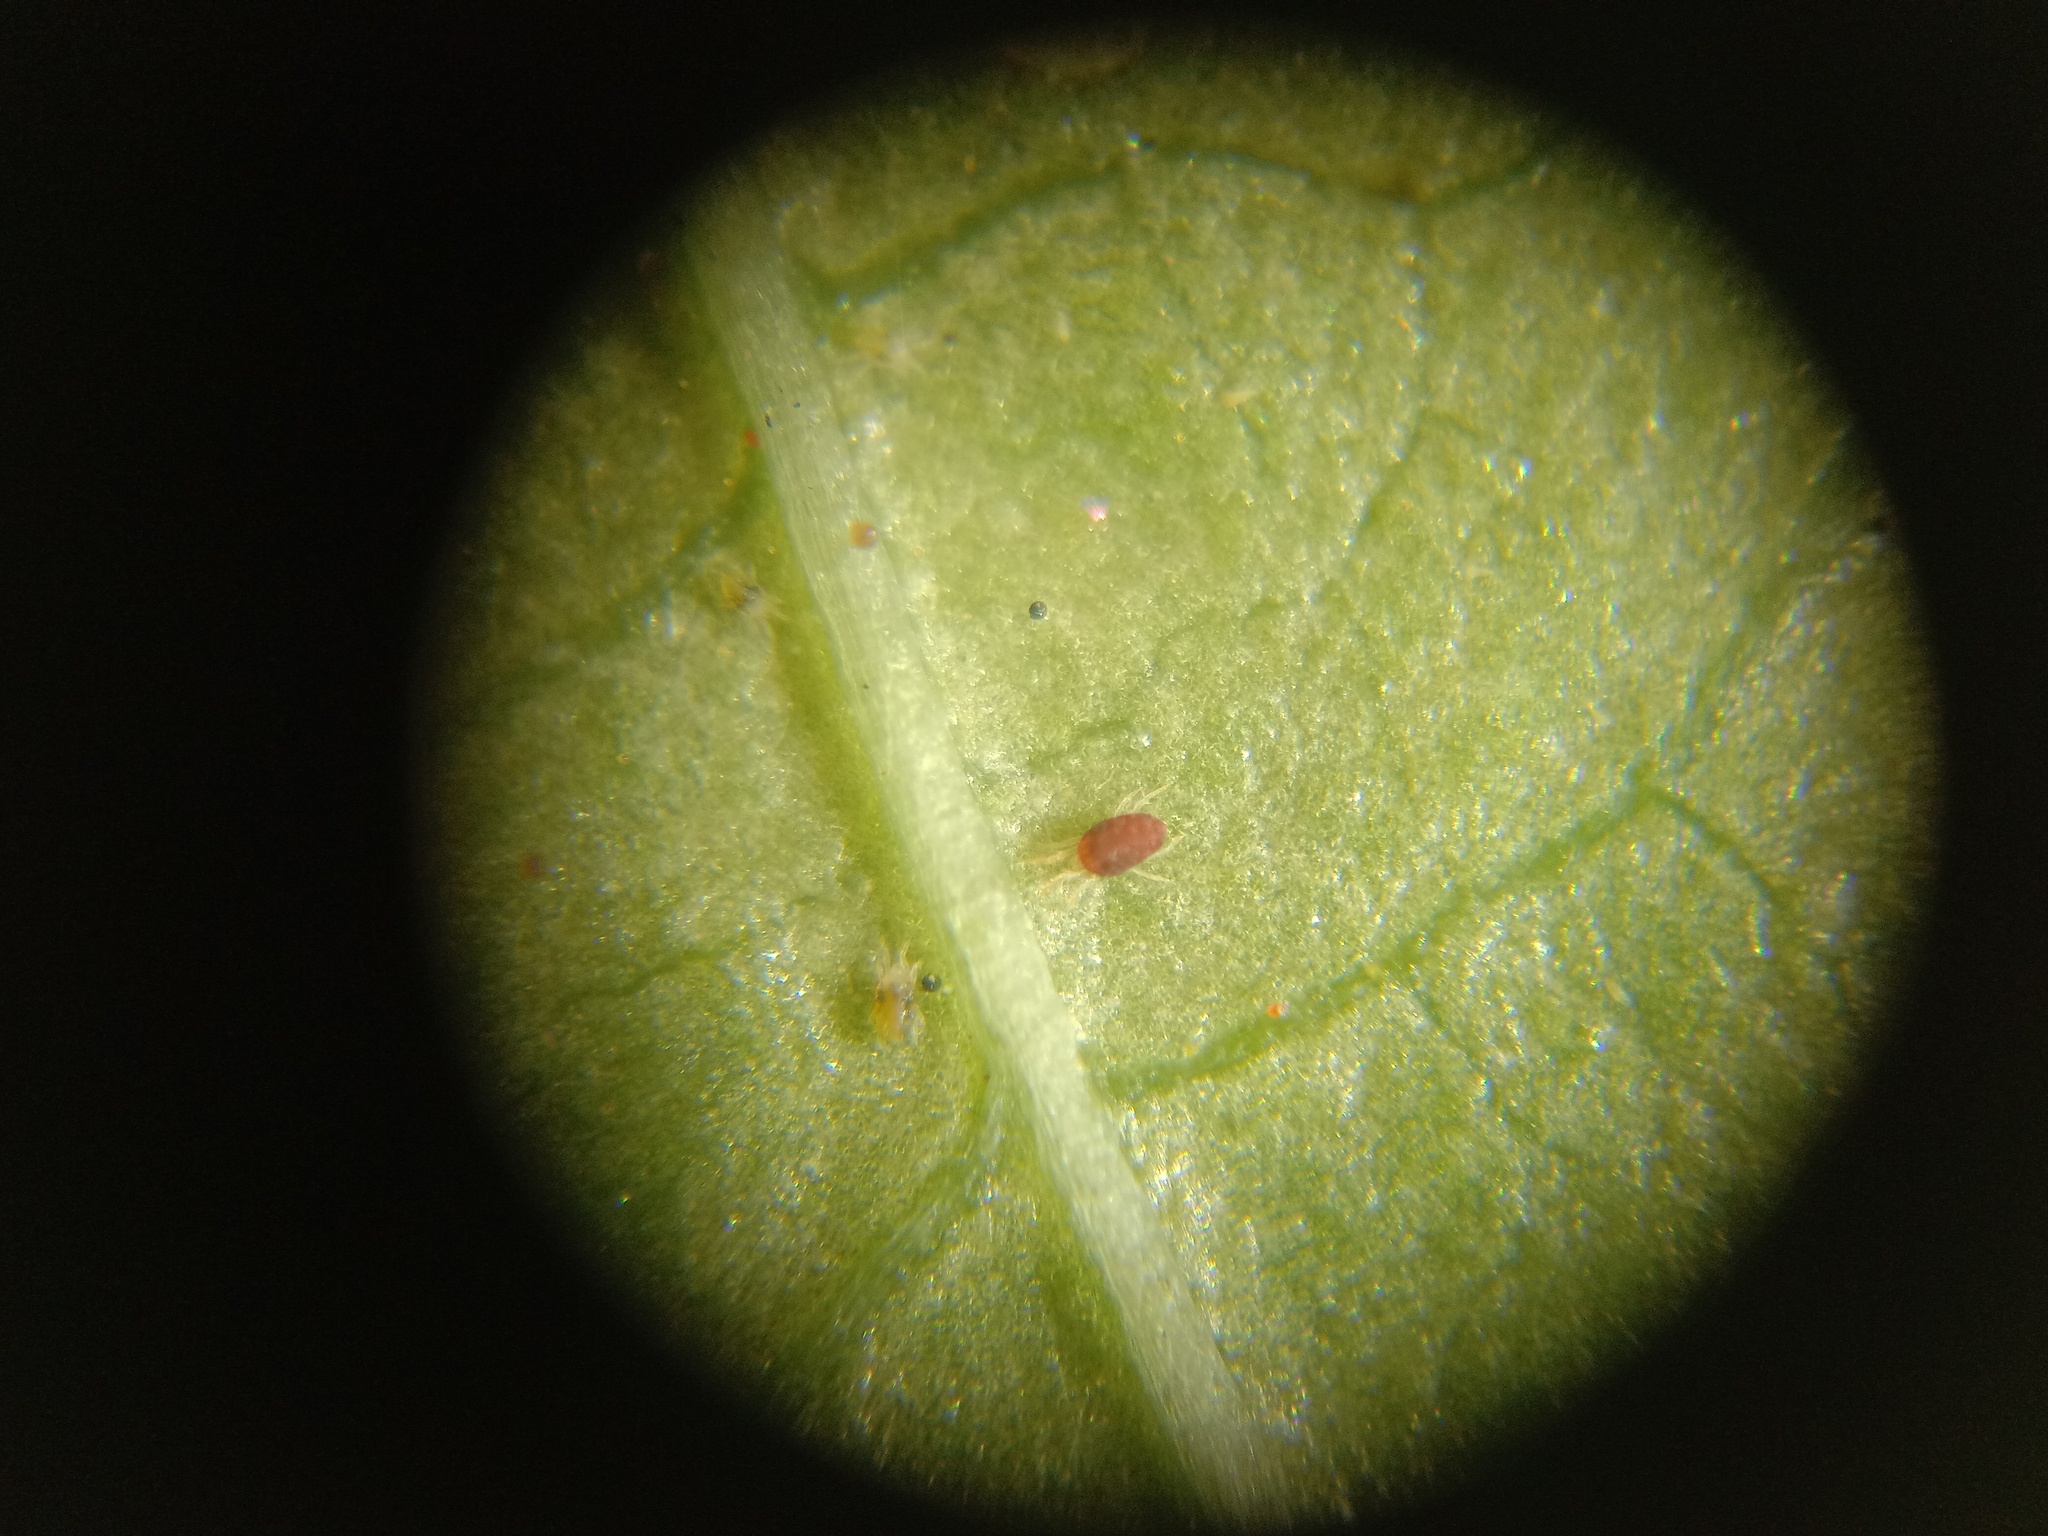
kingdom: Animalia
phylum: Arthropoda
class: Arachnida
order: Trombidiformes
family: Tetranychidae
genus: Tetranychus
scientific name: Tetranychus urticae
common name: Carmine spider mite
